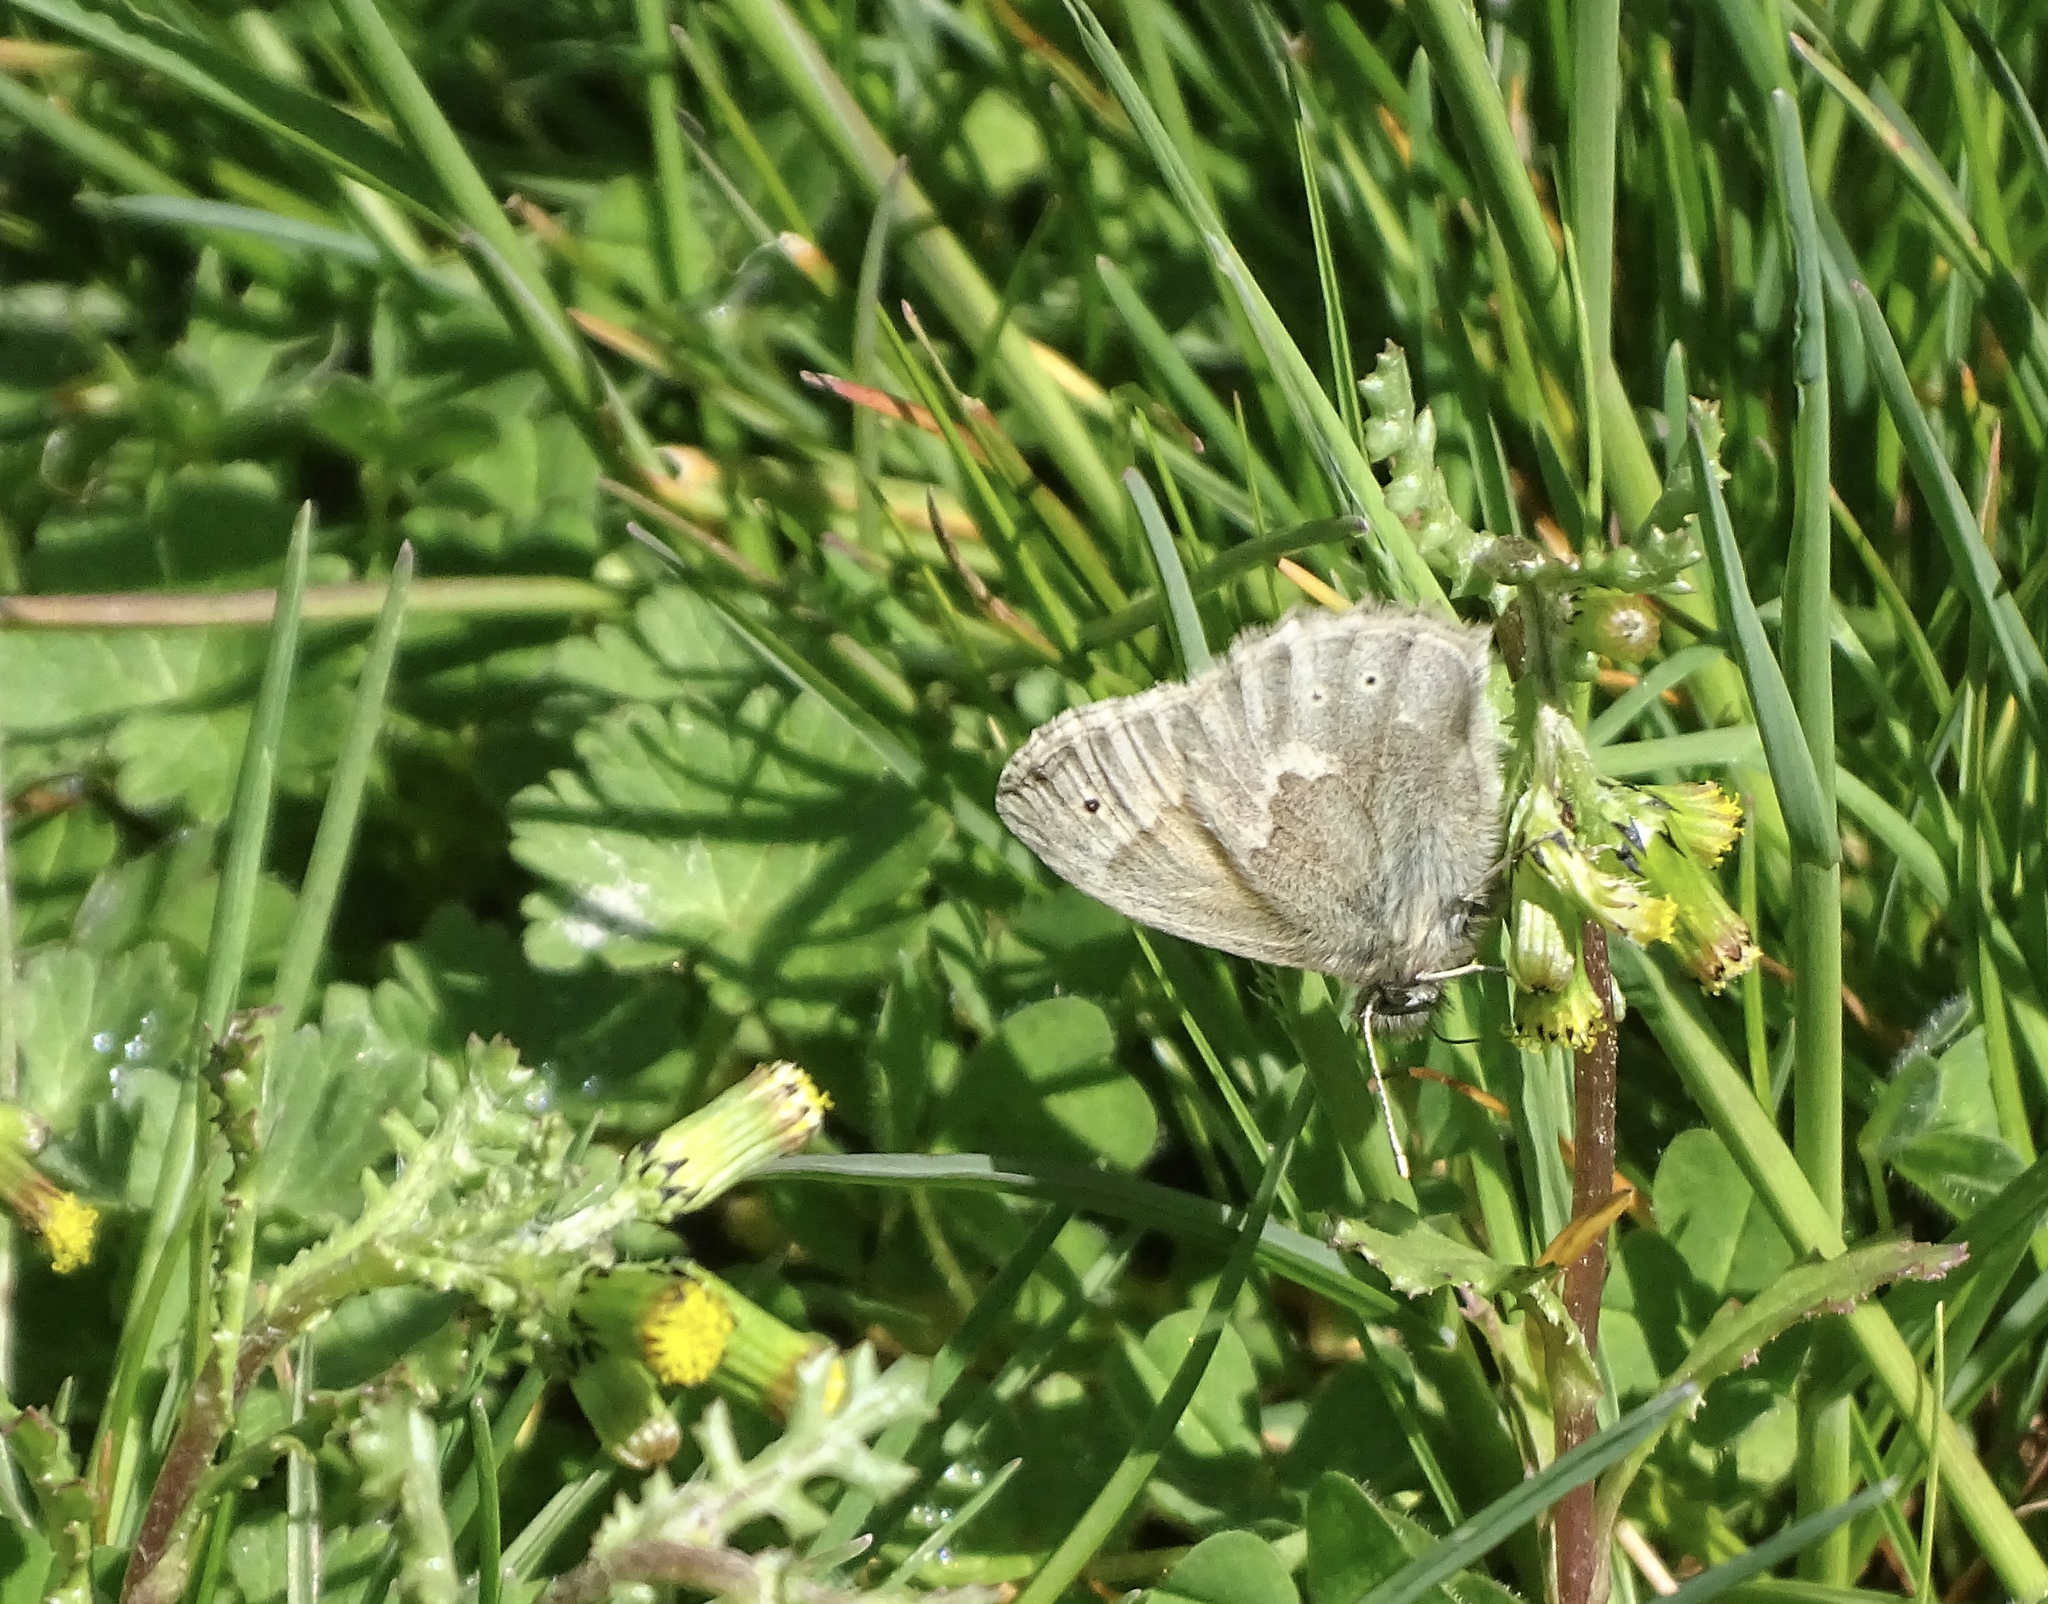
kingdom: Animalia
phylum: Arthropoda
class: Insecta
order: Lepidoptera
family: Nymphalidae
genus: Coenonympha
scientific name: Coenonympha california
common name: Common ringlet
